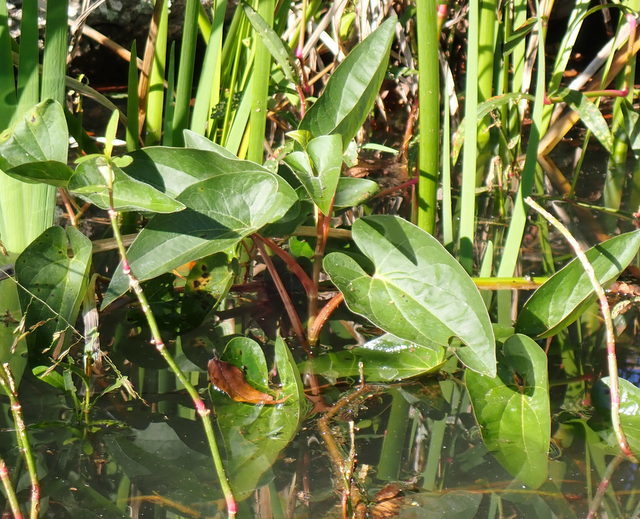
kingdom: Plantae
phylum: Tracheophyta
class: Magnoliopsida
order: Piperales
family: Saururaceae
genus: Saururus
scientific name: Saururus cernuus
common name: Lizard's-tail
